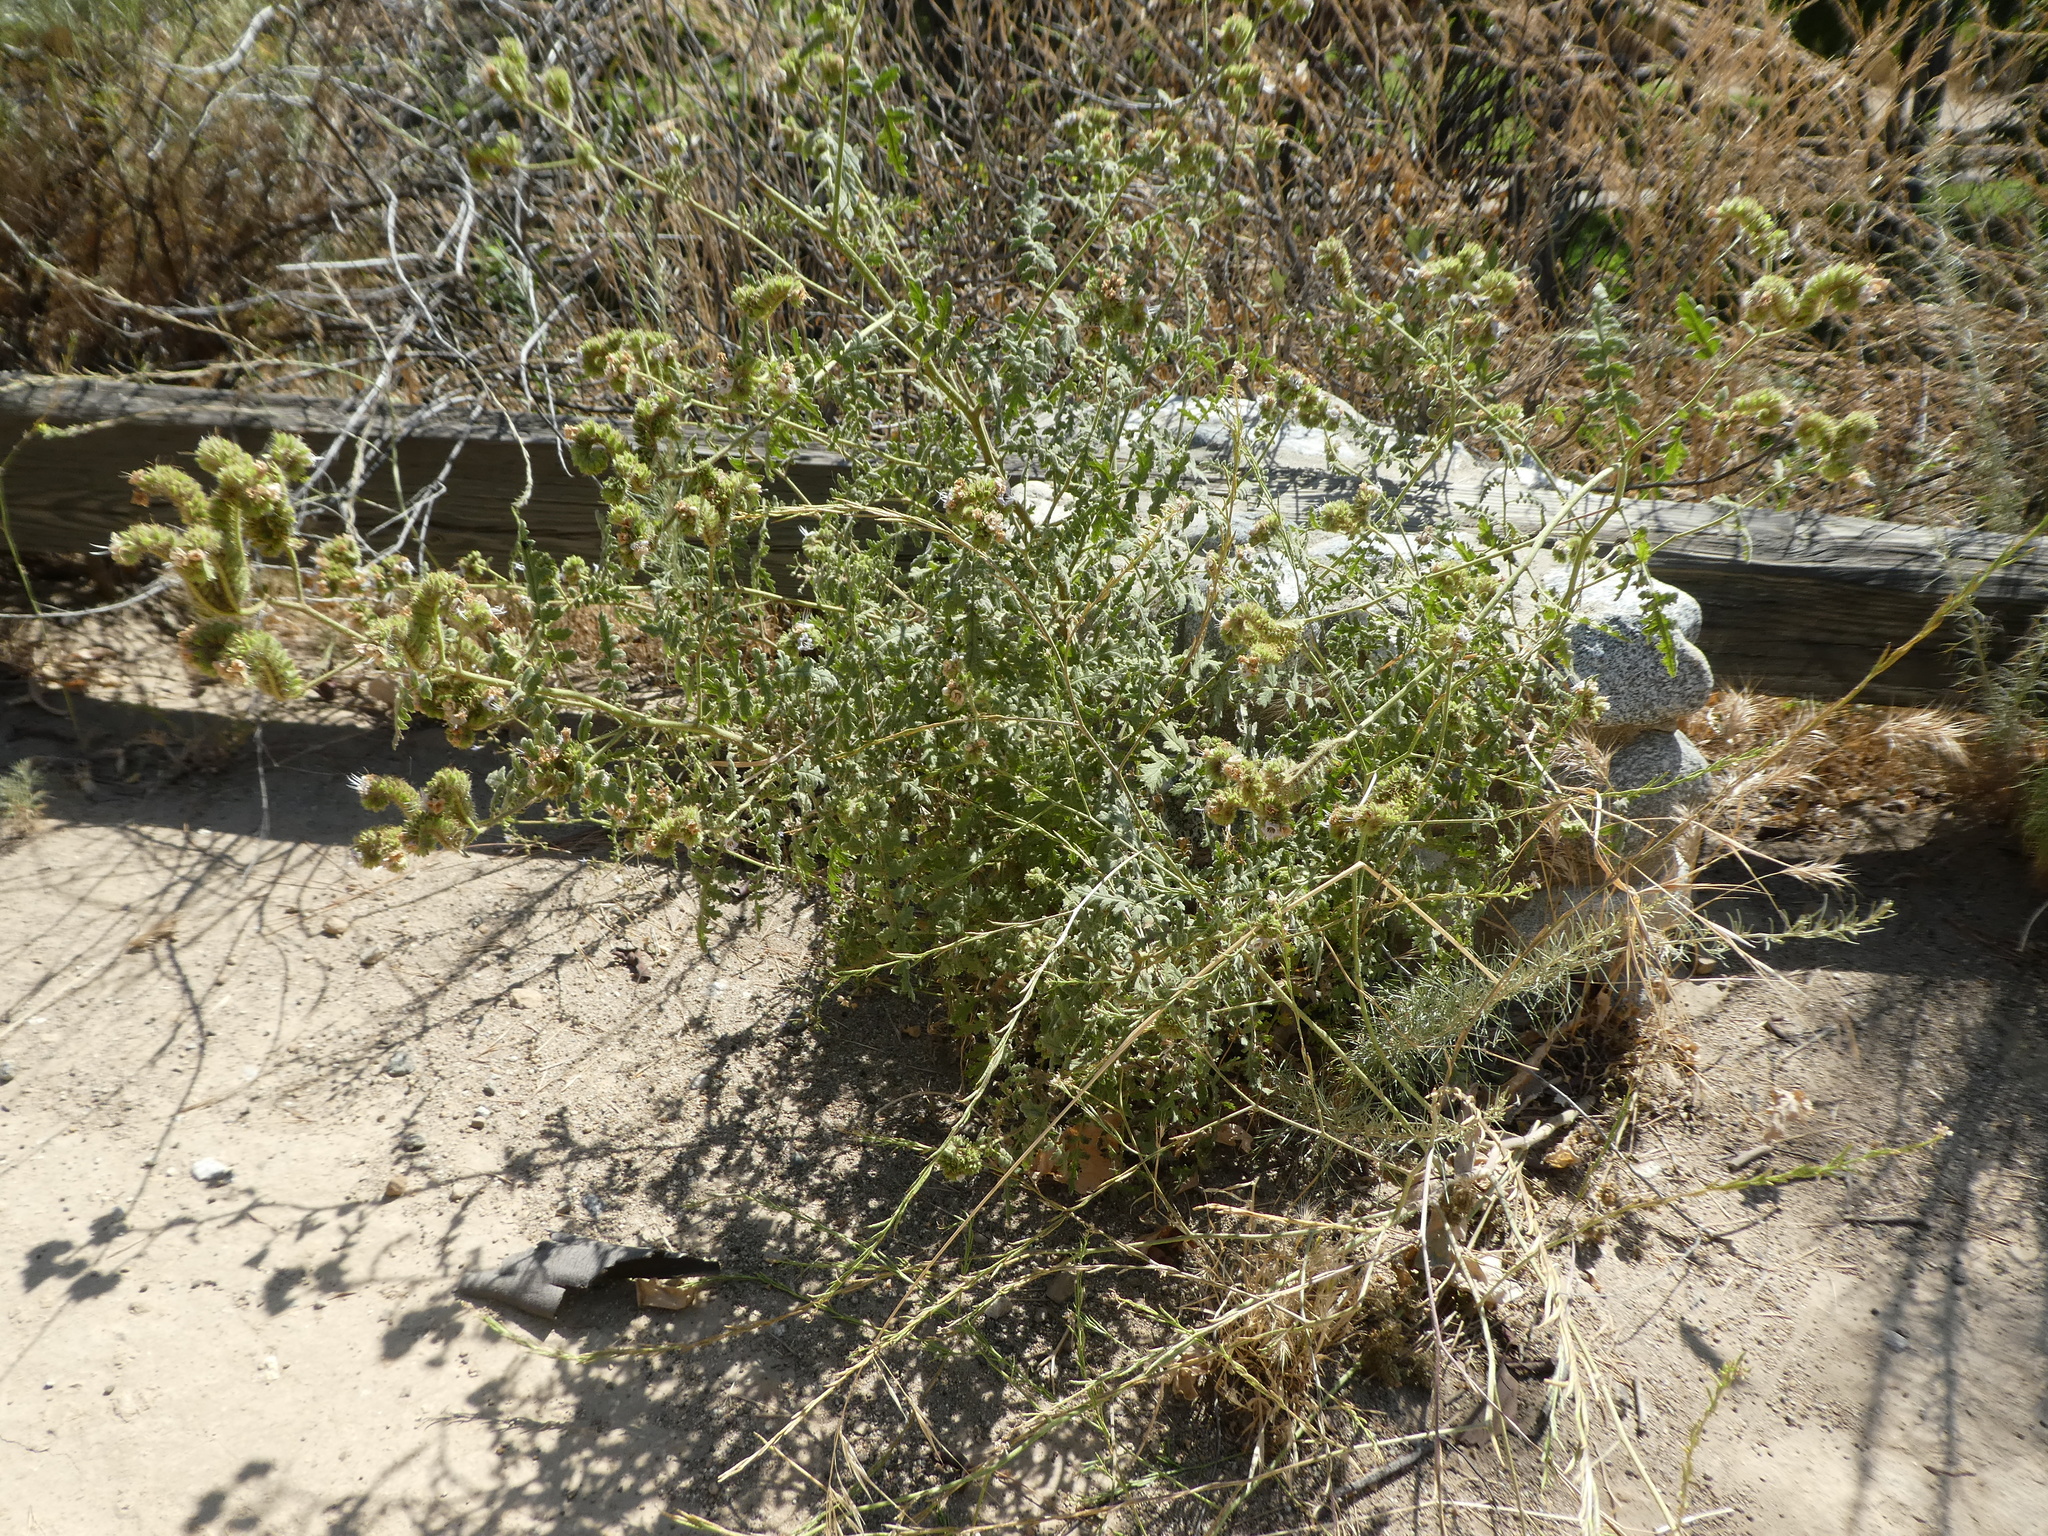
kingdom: Plantae
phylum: Tracheophyta
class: Magnoliopsida
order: Boraginales
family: Hydrophyllaceae
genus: Phacelia
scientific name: Phacelia ramosissima
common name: Branching phacelia
